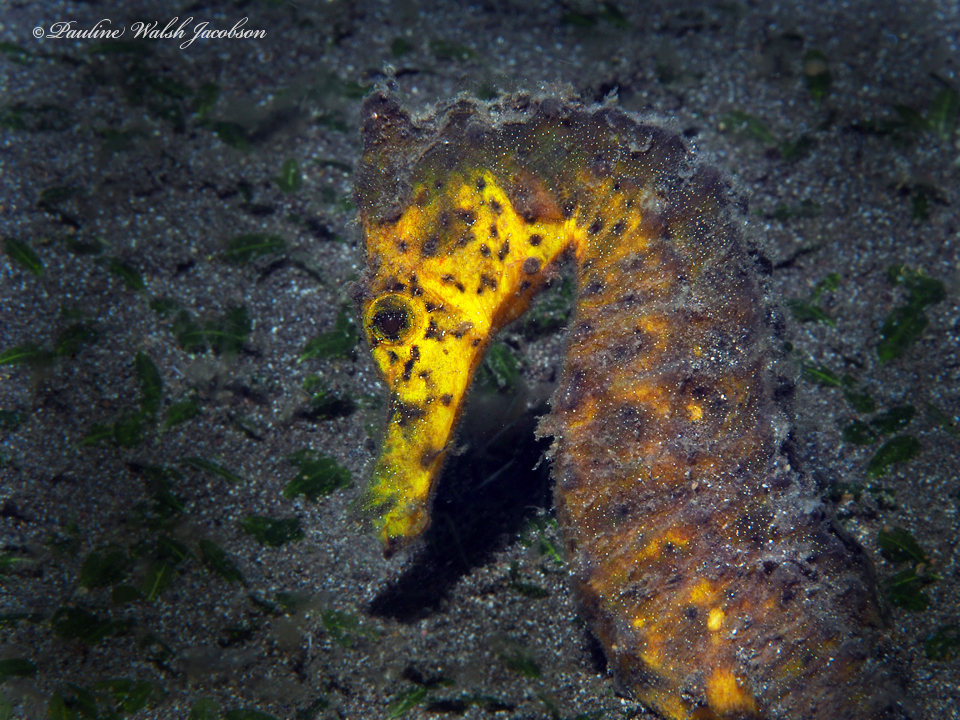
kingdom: Animalia
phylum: Chordata
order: Syngnathiformes
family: Syngnathidae
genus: Hippocampus
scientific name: Hippocampus kuda
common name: Spotted seahorse
